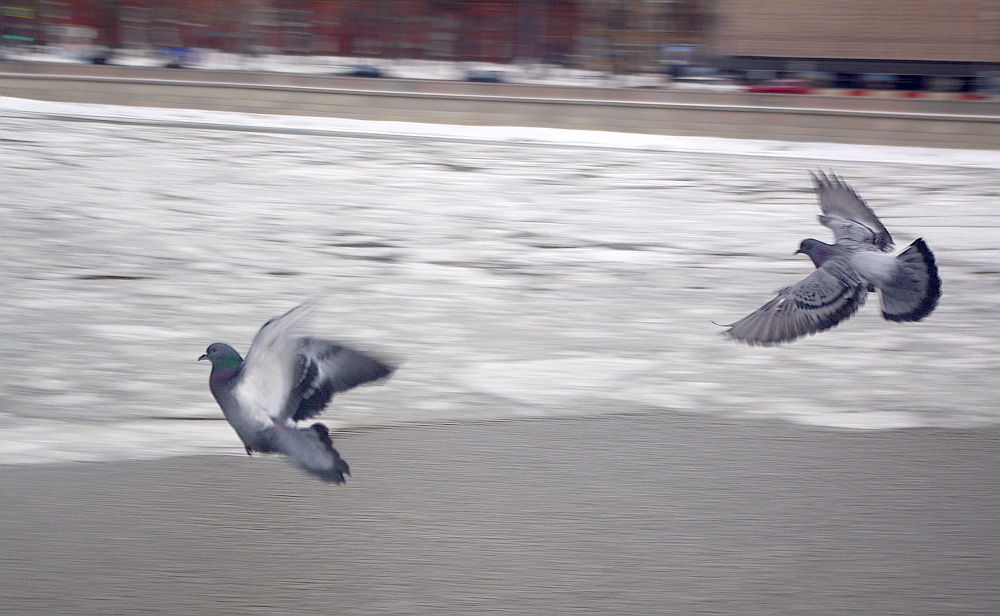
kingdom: Animalia
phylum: Chordata
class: Aves
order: Columbiformes
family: Columbidae
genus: Columba
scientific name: Columba livia
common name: Rock pigeon
